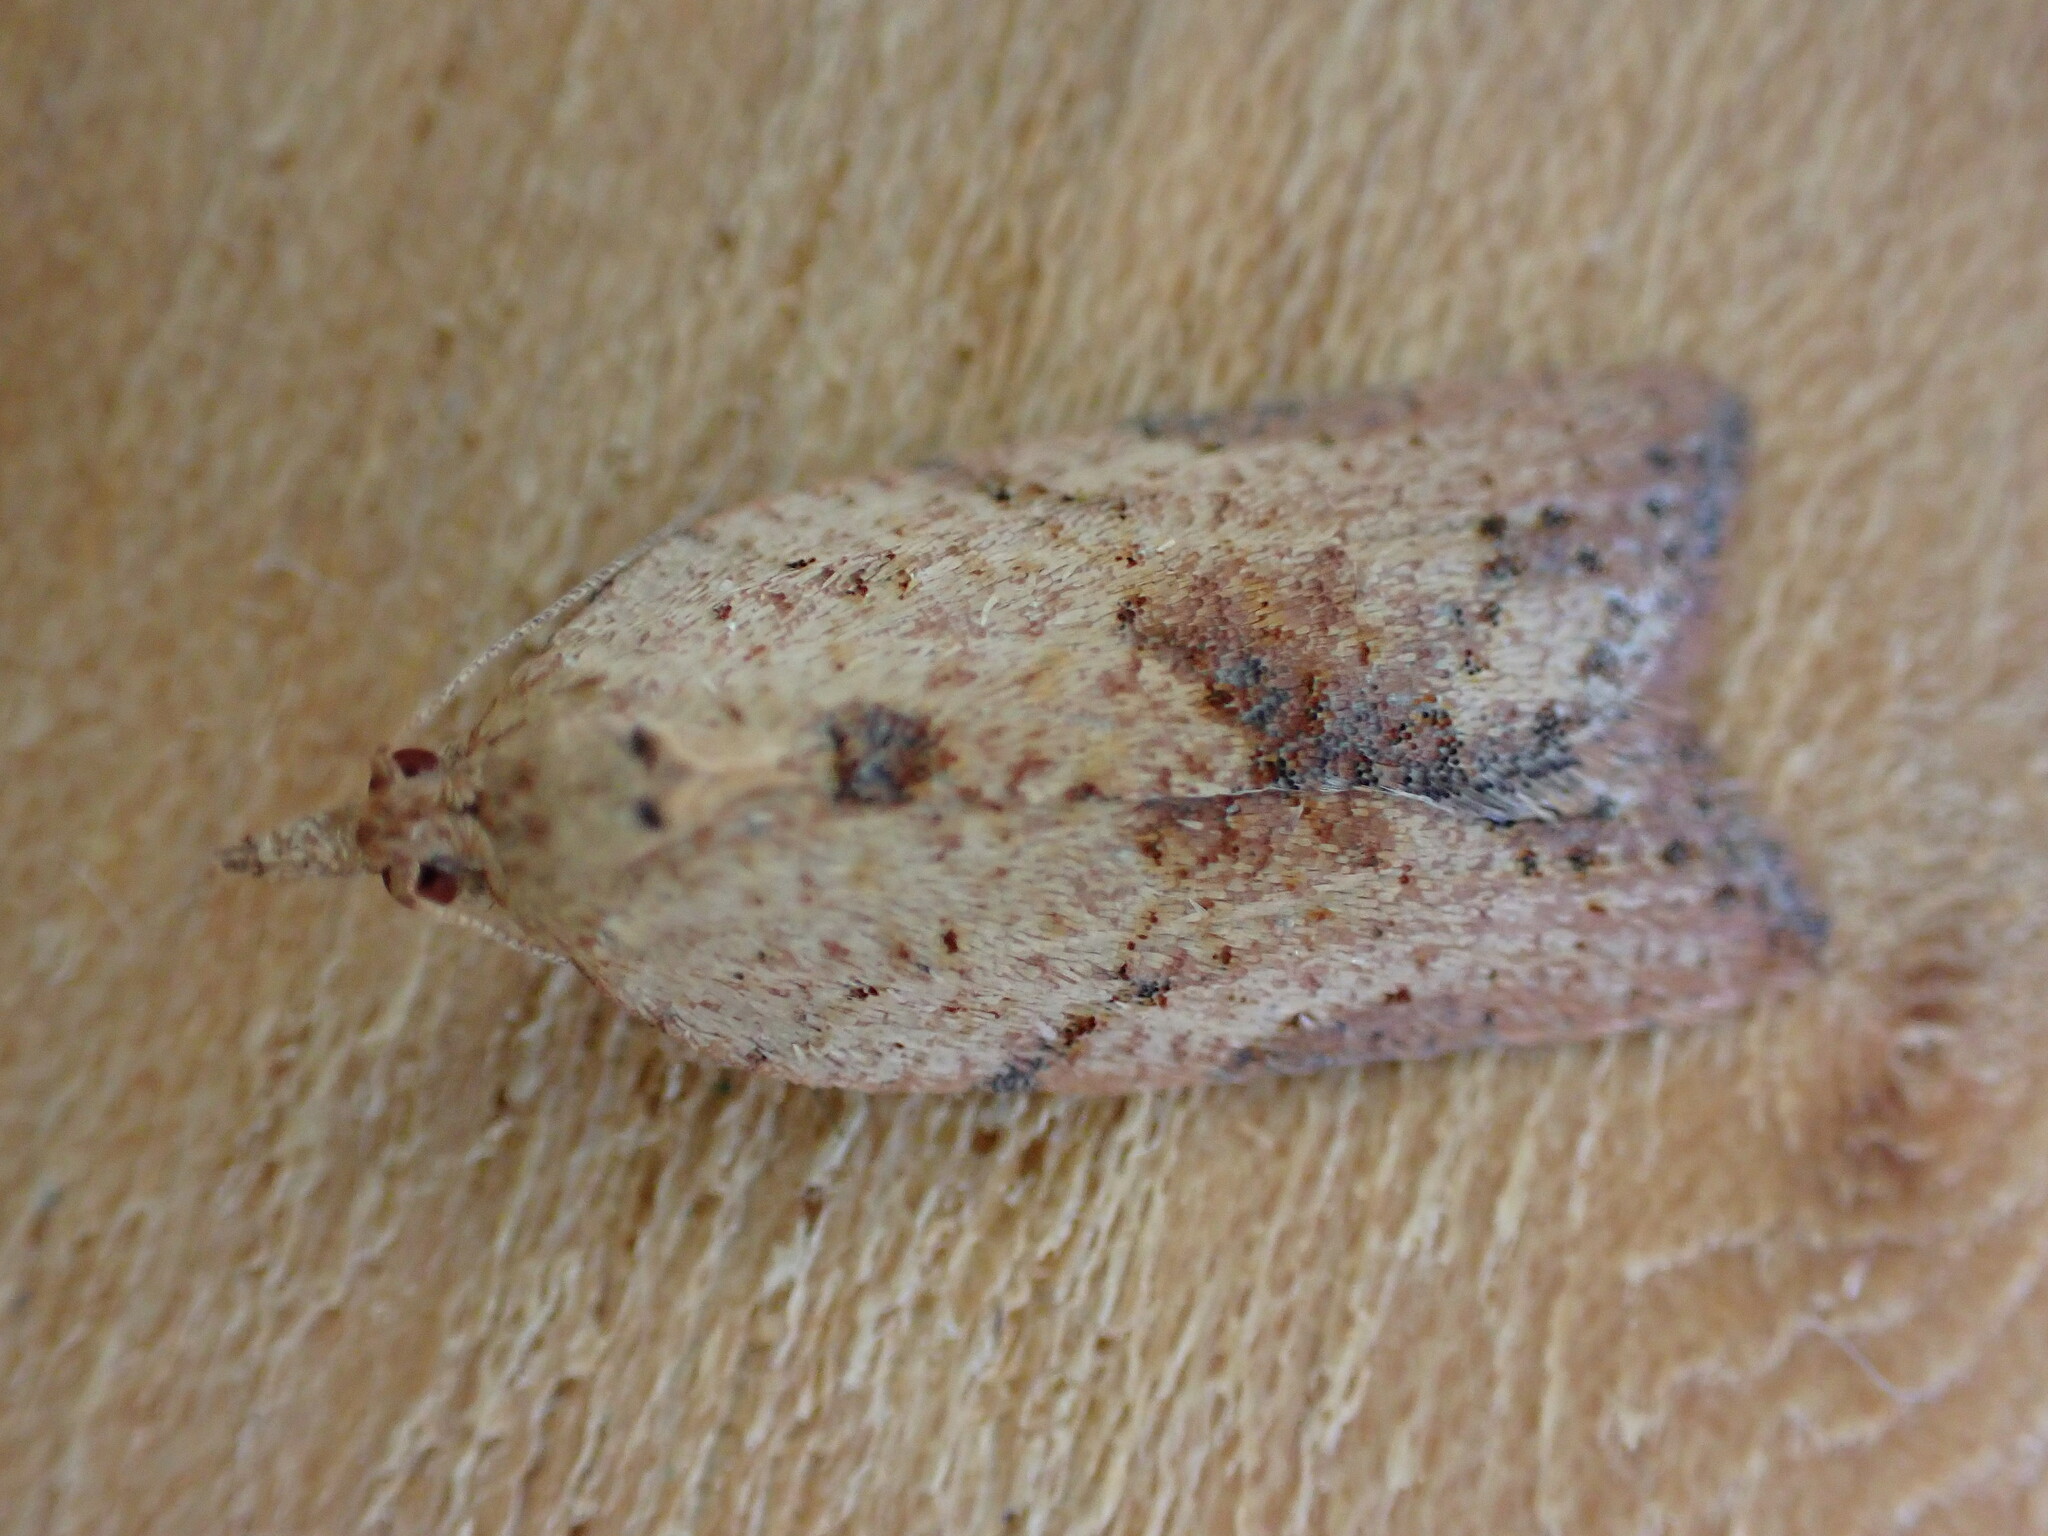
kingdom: Animalia
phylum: Arthropoda
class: Insecta
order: Lepidoptera
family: Tortricidae
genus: Epiphyas
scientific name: Epiphyas postvittana
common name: Light brown apple moth
